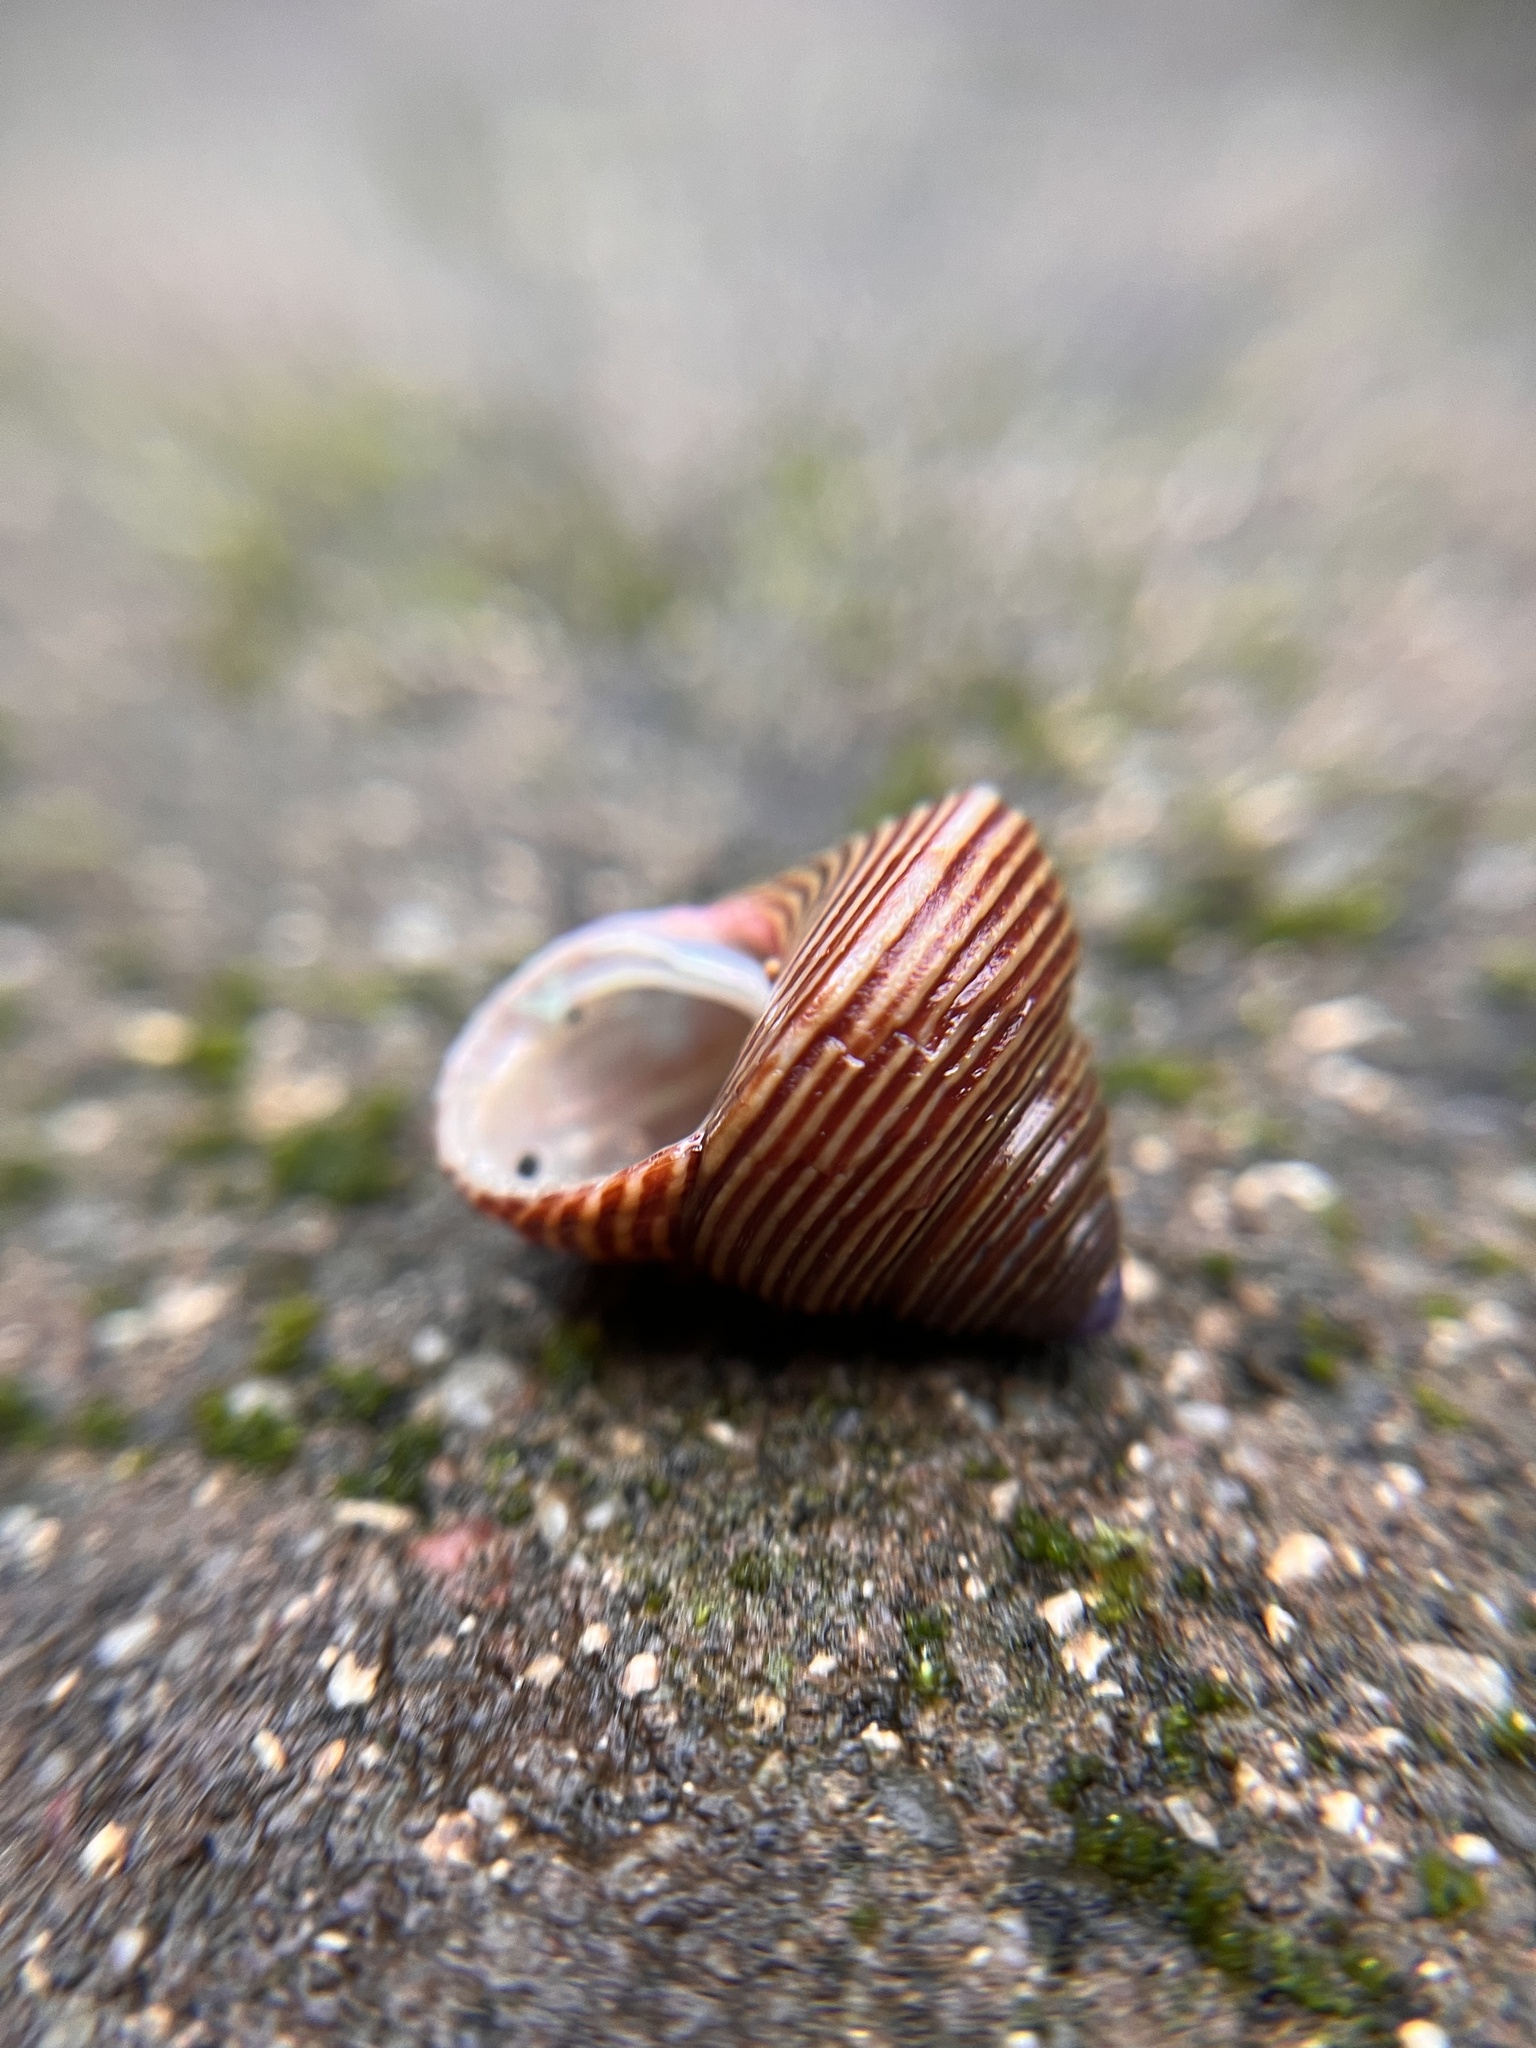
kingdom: Animalia
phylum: Mollusca
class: Gastropoda
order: Trochida
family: Calliostomatidae
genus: Calliostoma
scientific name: Calliostoma ligatum
